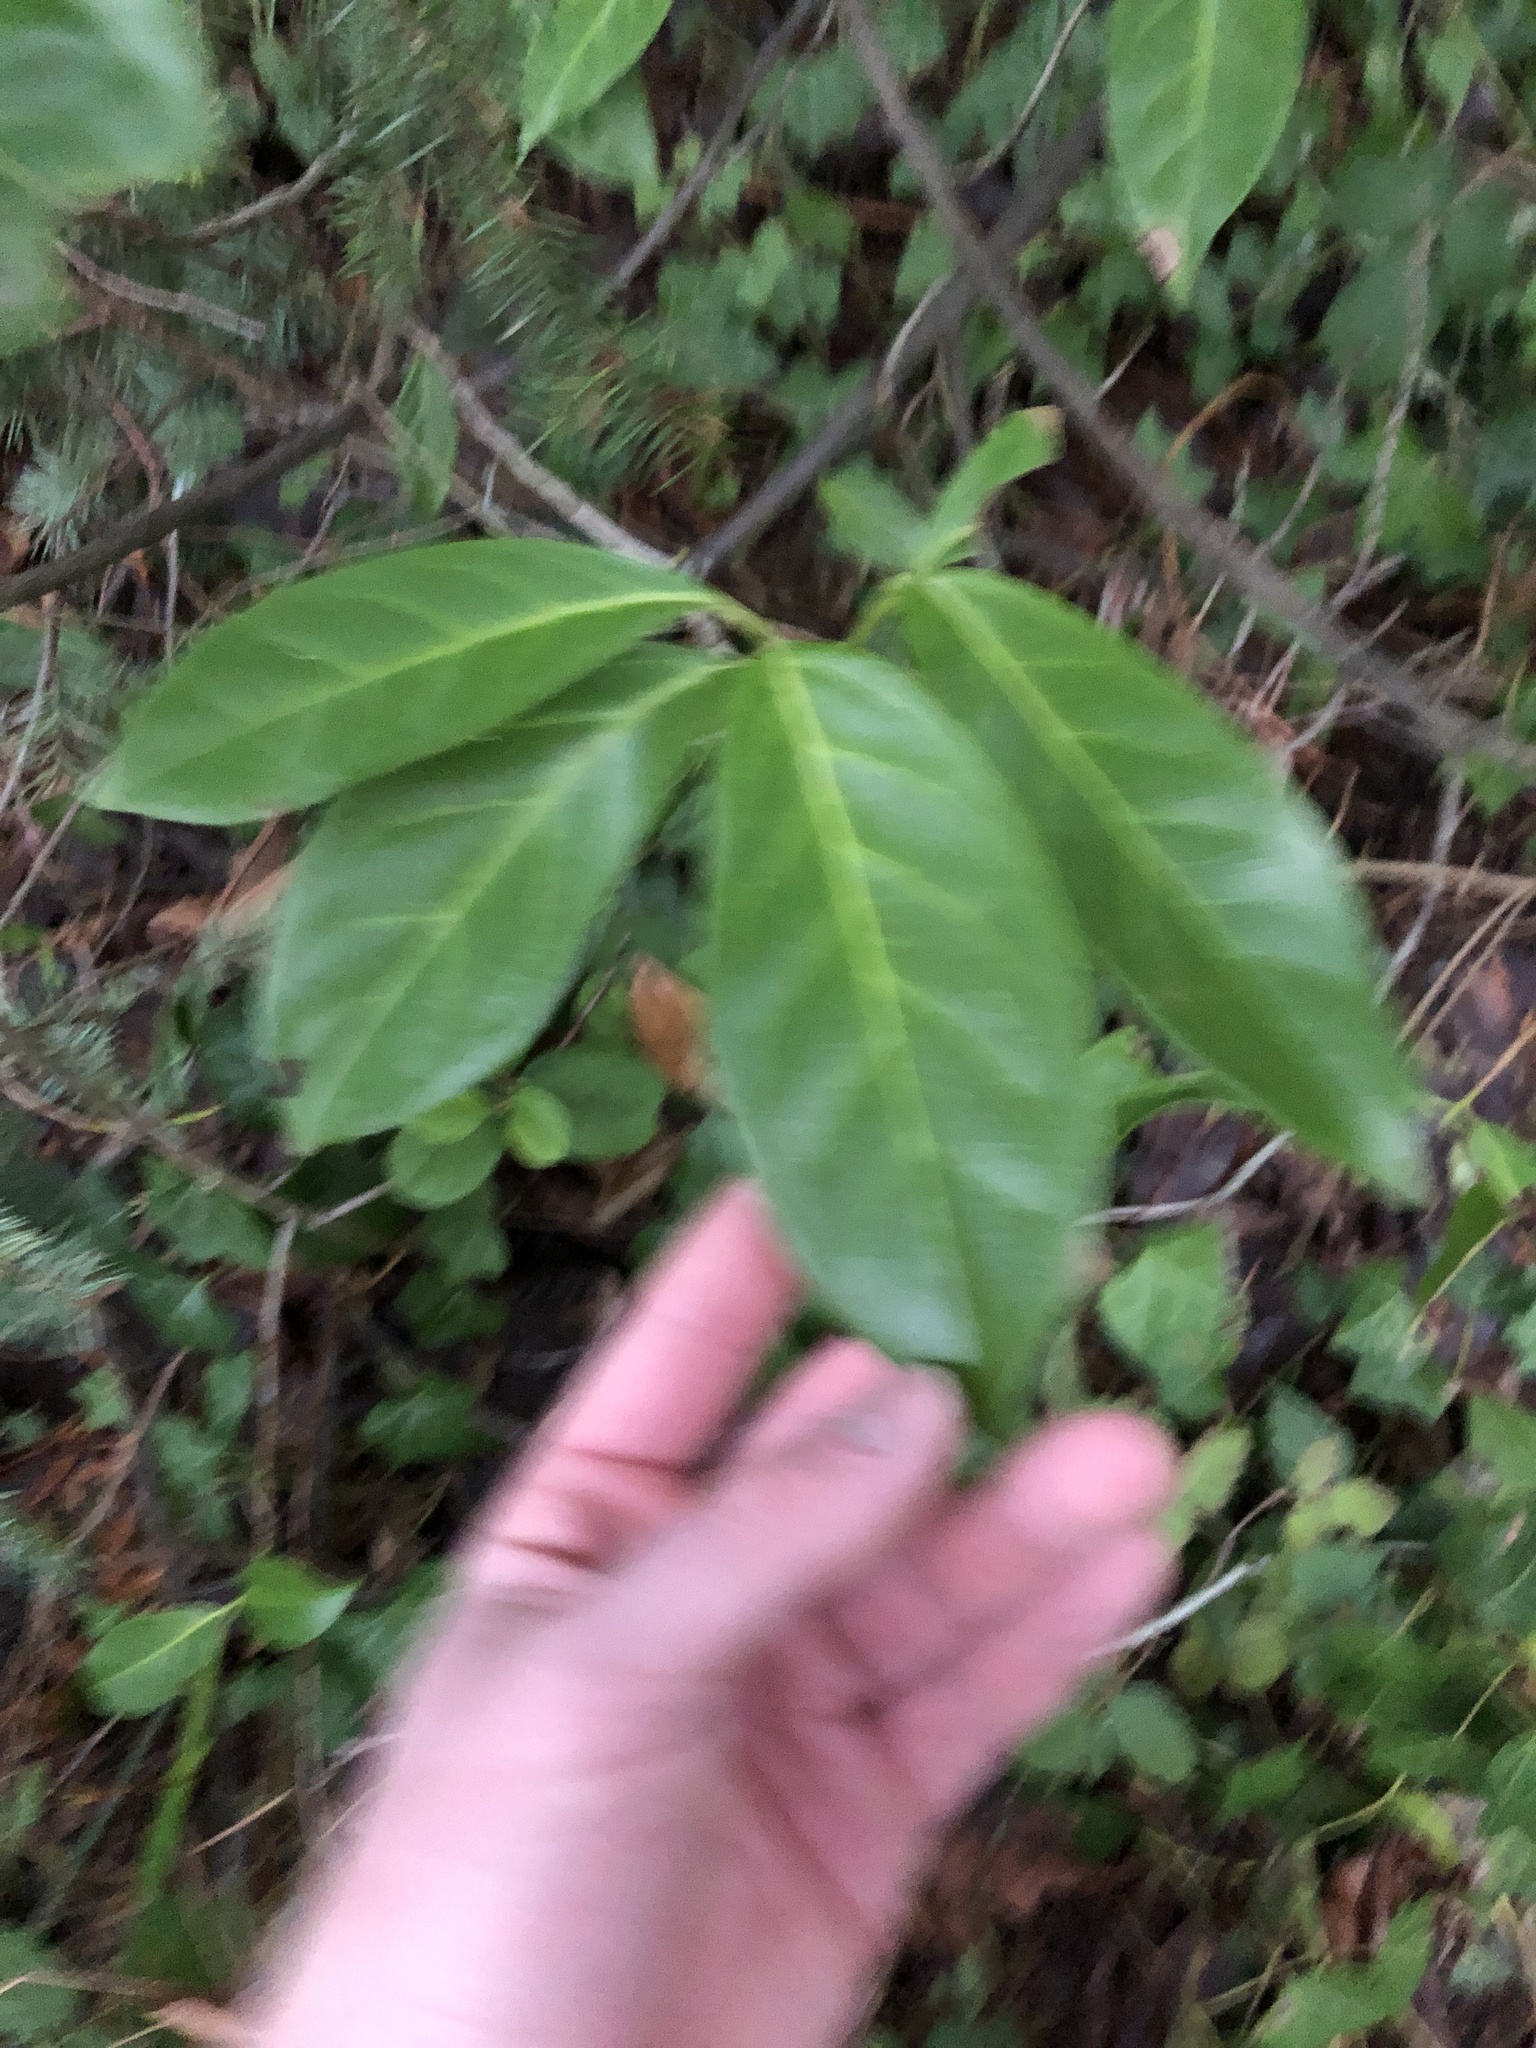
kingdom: Plantae
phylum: Tracheophyta
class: Magnoliopsida
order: Rosales
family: Rosaceae
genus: Prunus
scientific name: Prunus laurocerasus
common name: Cherry laurel
